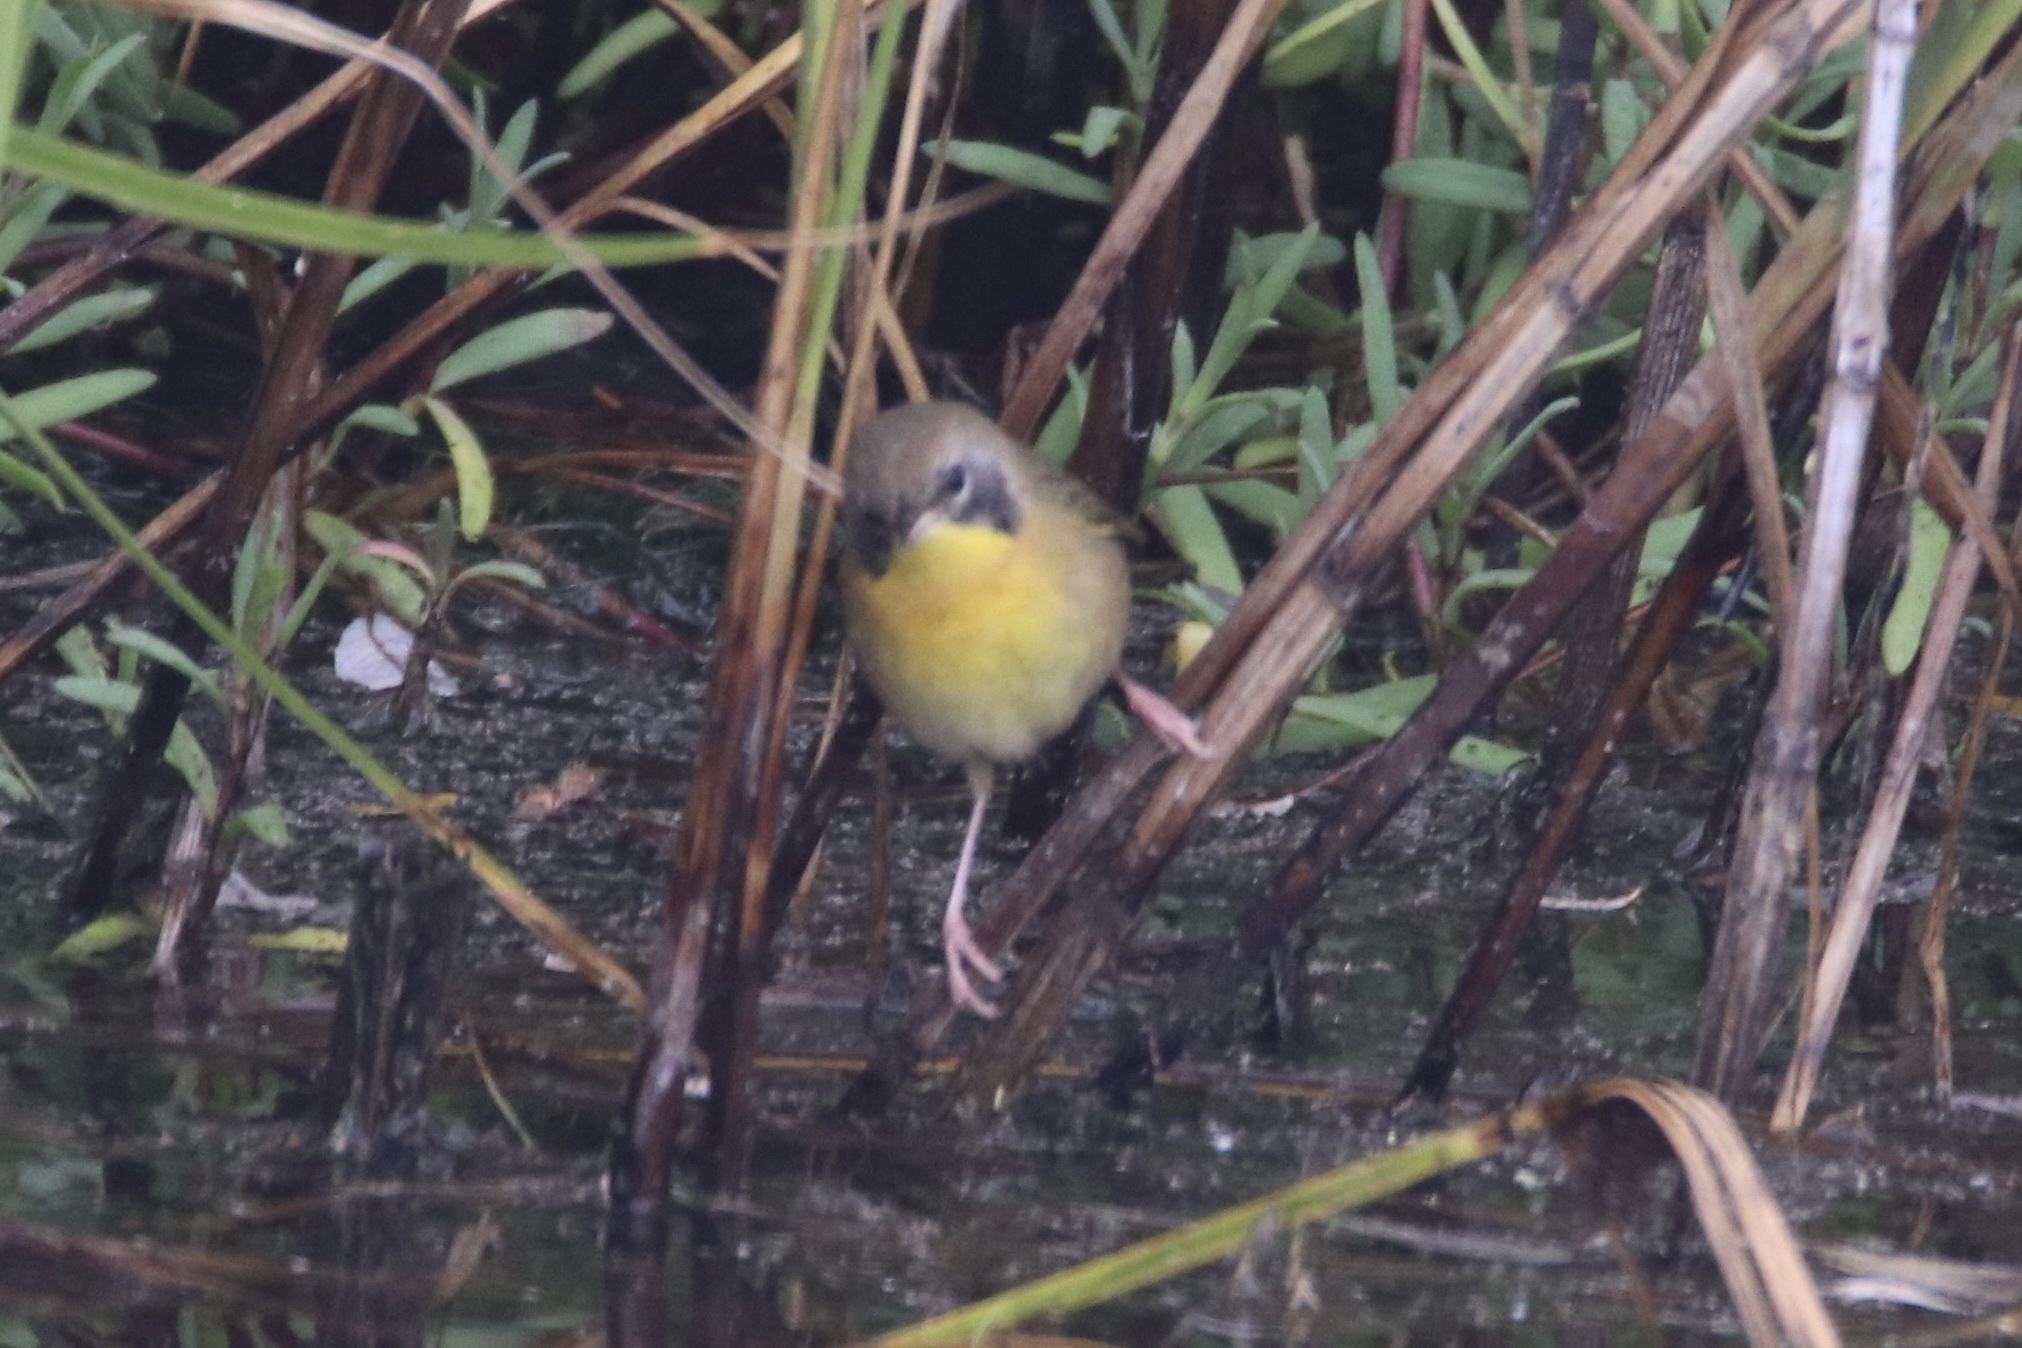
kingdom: Animalia
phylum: Chordata
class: Aves
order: Passeriformes
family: Parulidae
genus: Geothlypis
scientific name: Geothlypis trichas
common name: Common yellowthroat
